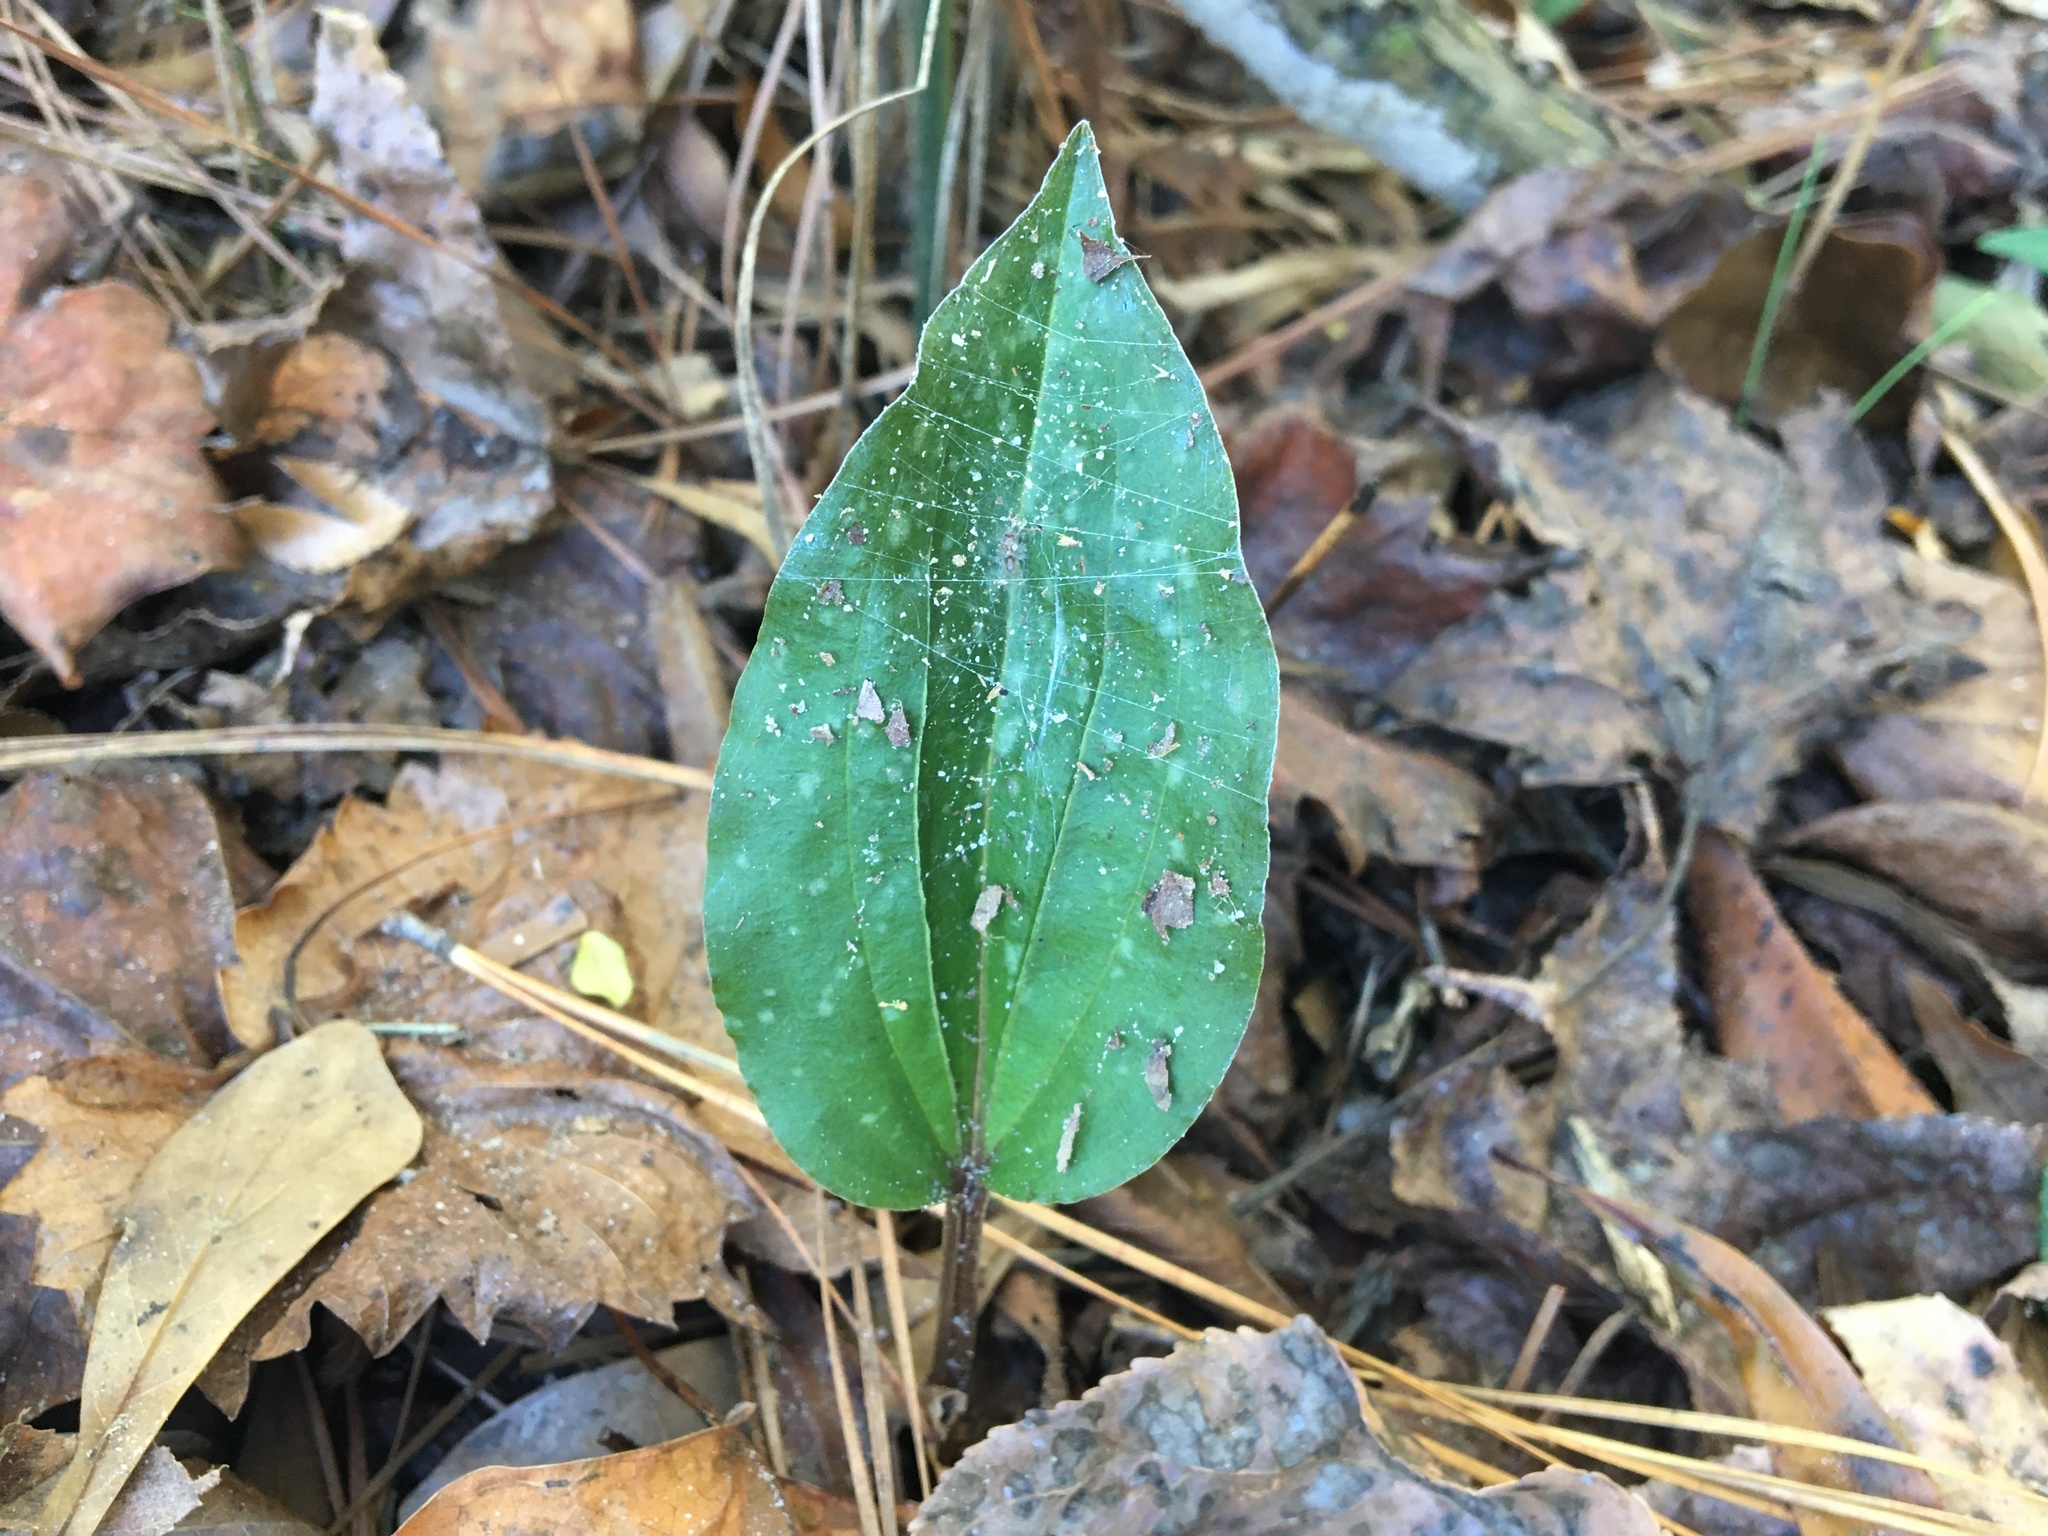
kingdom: Plantae
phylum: Tracheophyta
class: Liliopsida
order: Asparagales
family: Orchidaceae
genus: Tipularia
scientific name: Tipularia discolor
